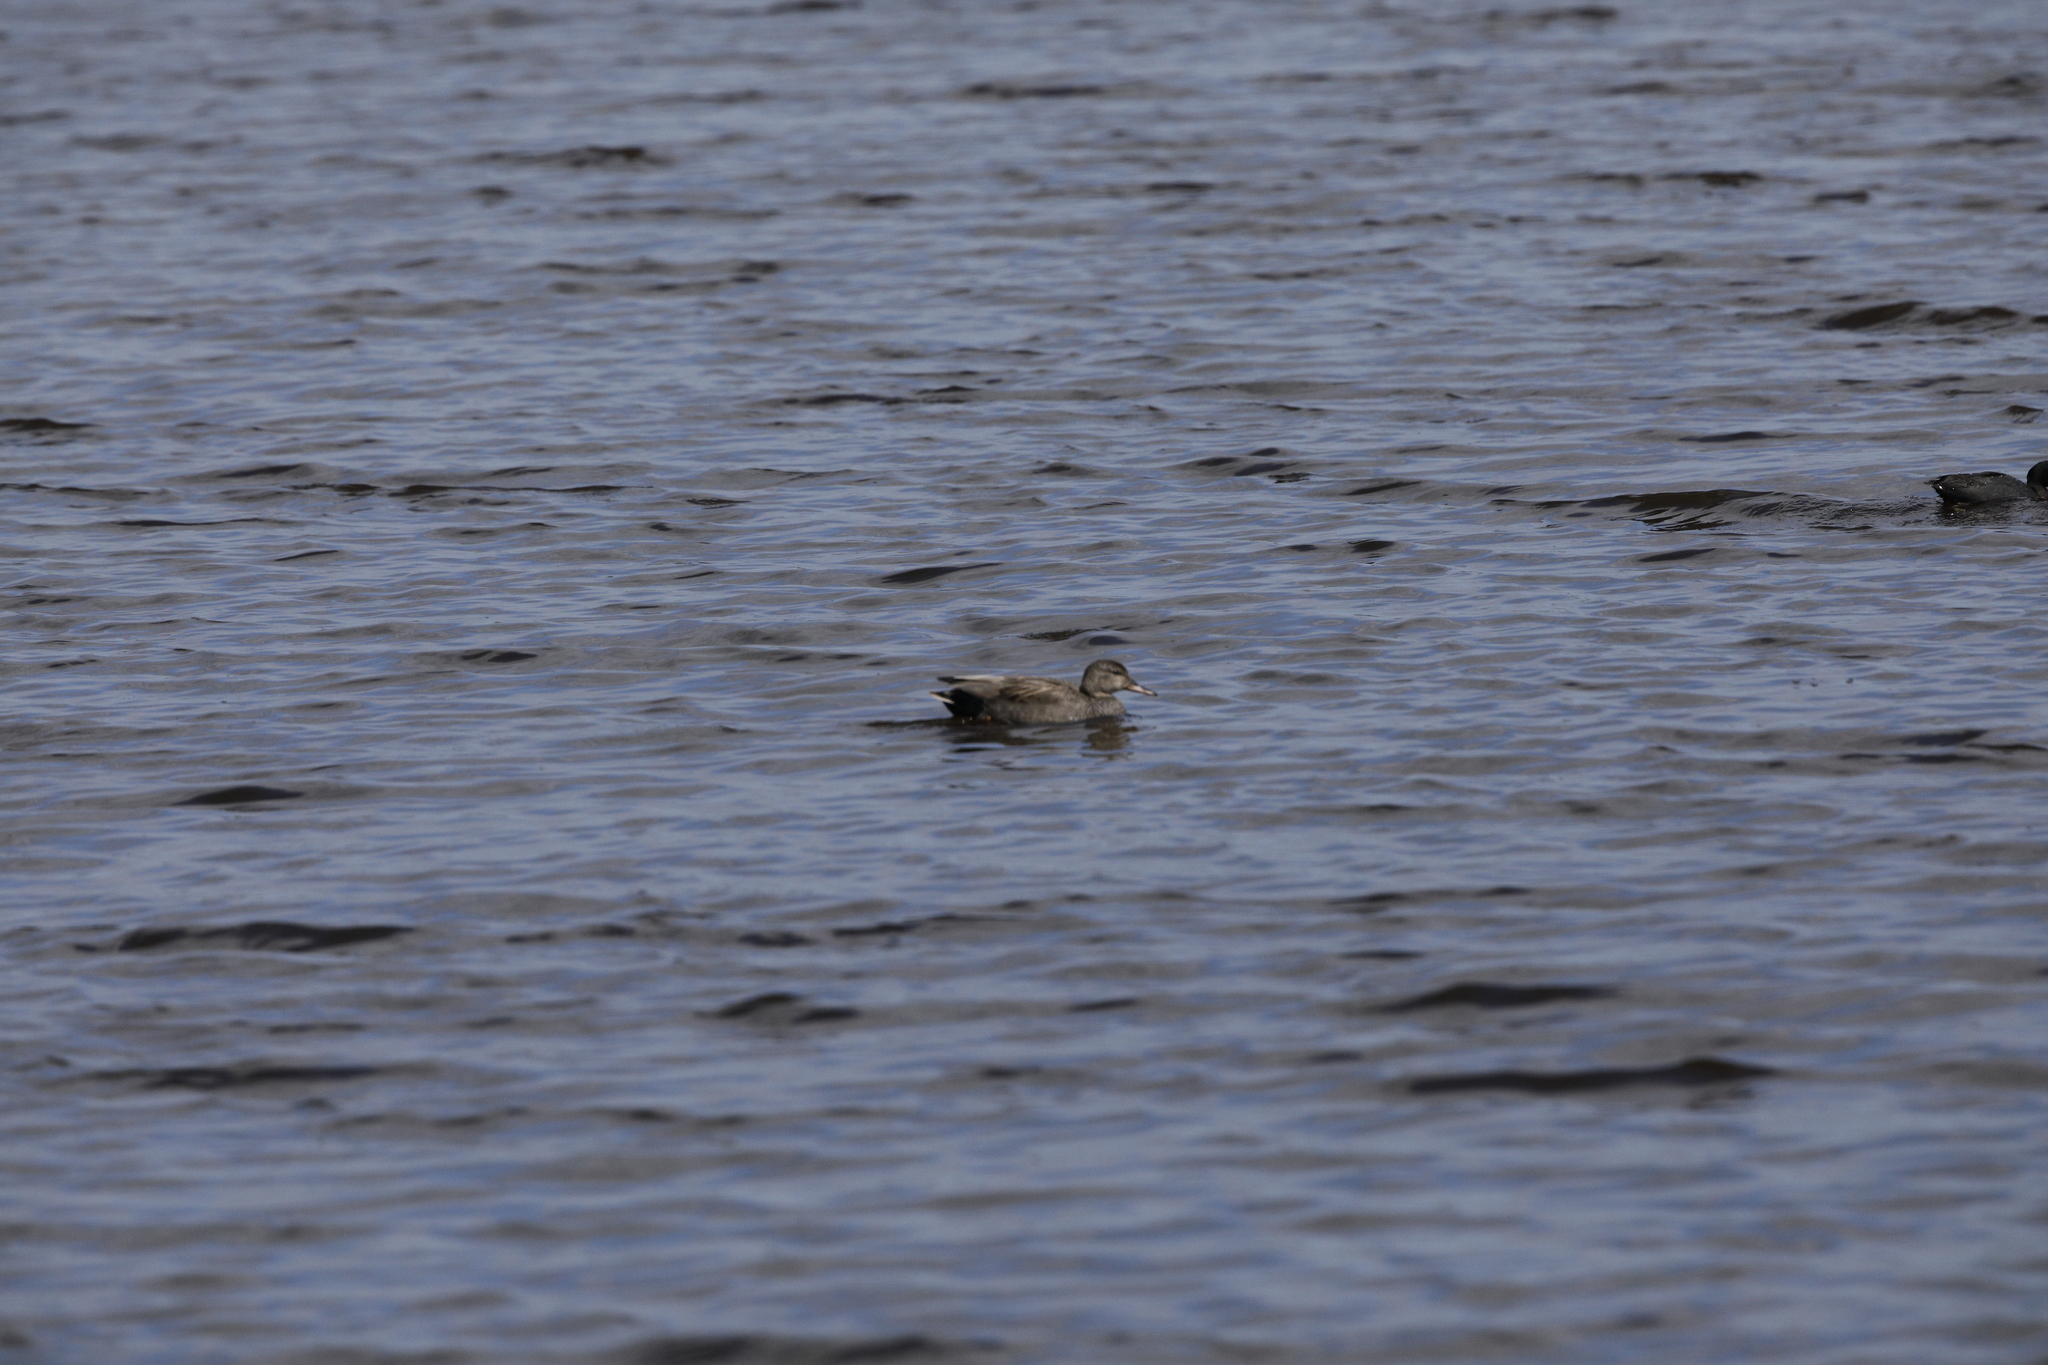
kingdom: Animalia
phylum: Chordata
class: Aves
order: Anseriformes
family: Anatidae
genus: Mareca
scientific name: Mareca strepera
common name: Gadwall
